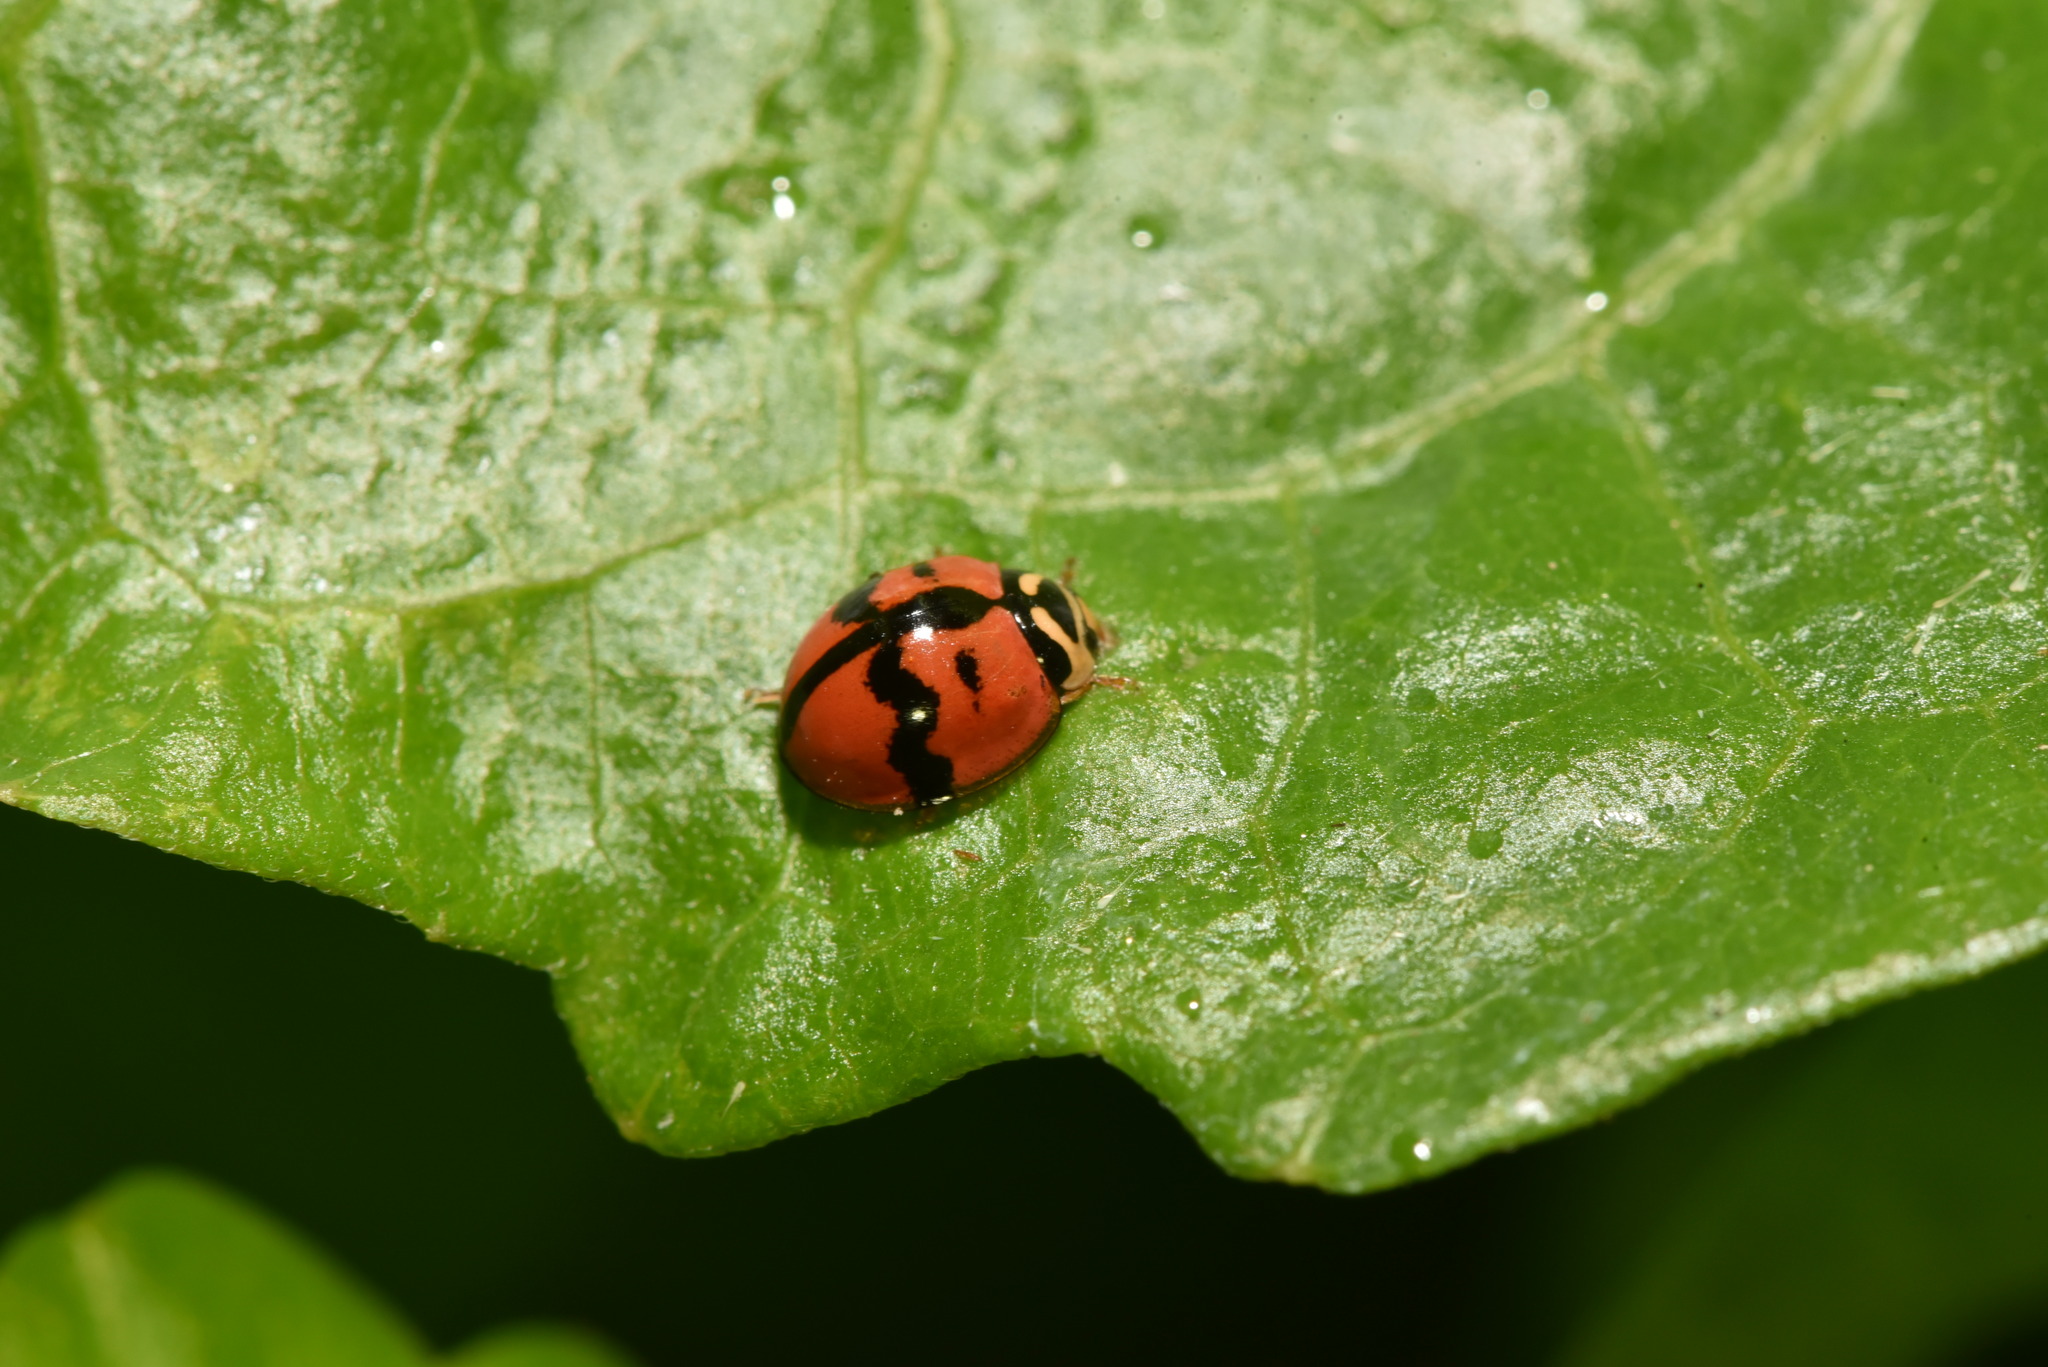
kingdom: Animalia
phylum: Arthropoda
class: Insecta
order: Coleoptera
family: Coccinellidae
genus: Cheilomenes
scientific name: Cheilomenes sexmaculata
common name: Ladybird beetle
